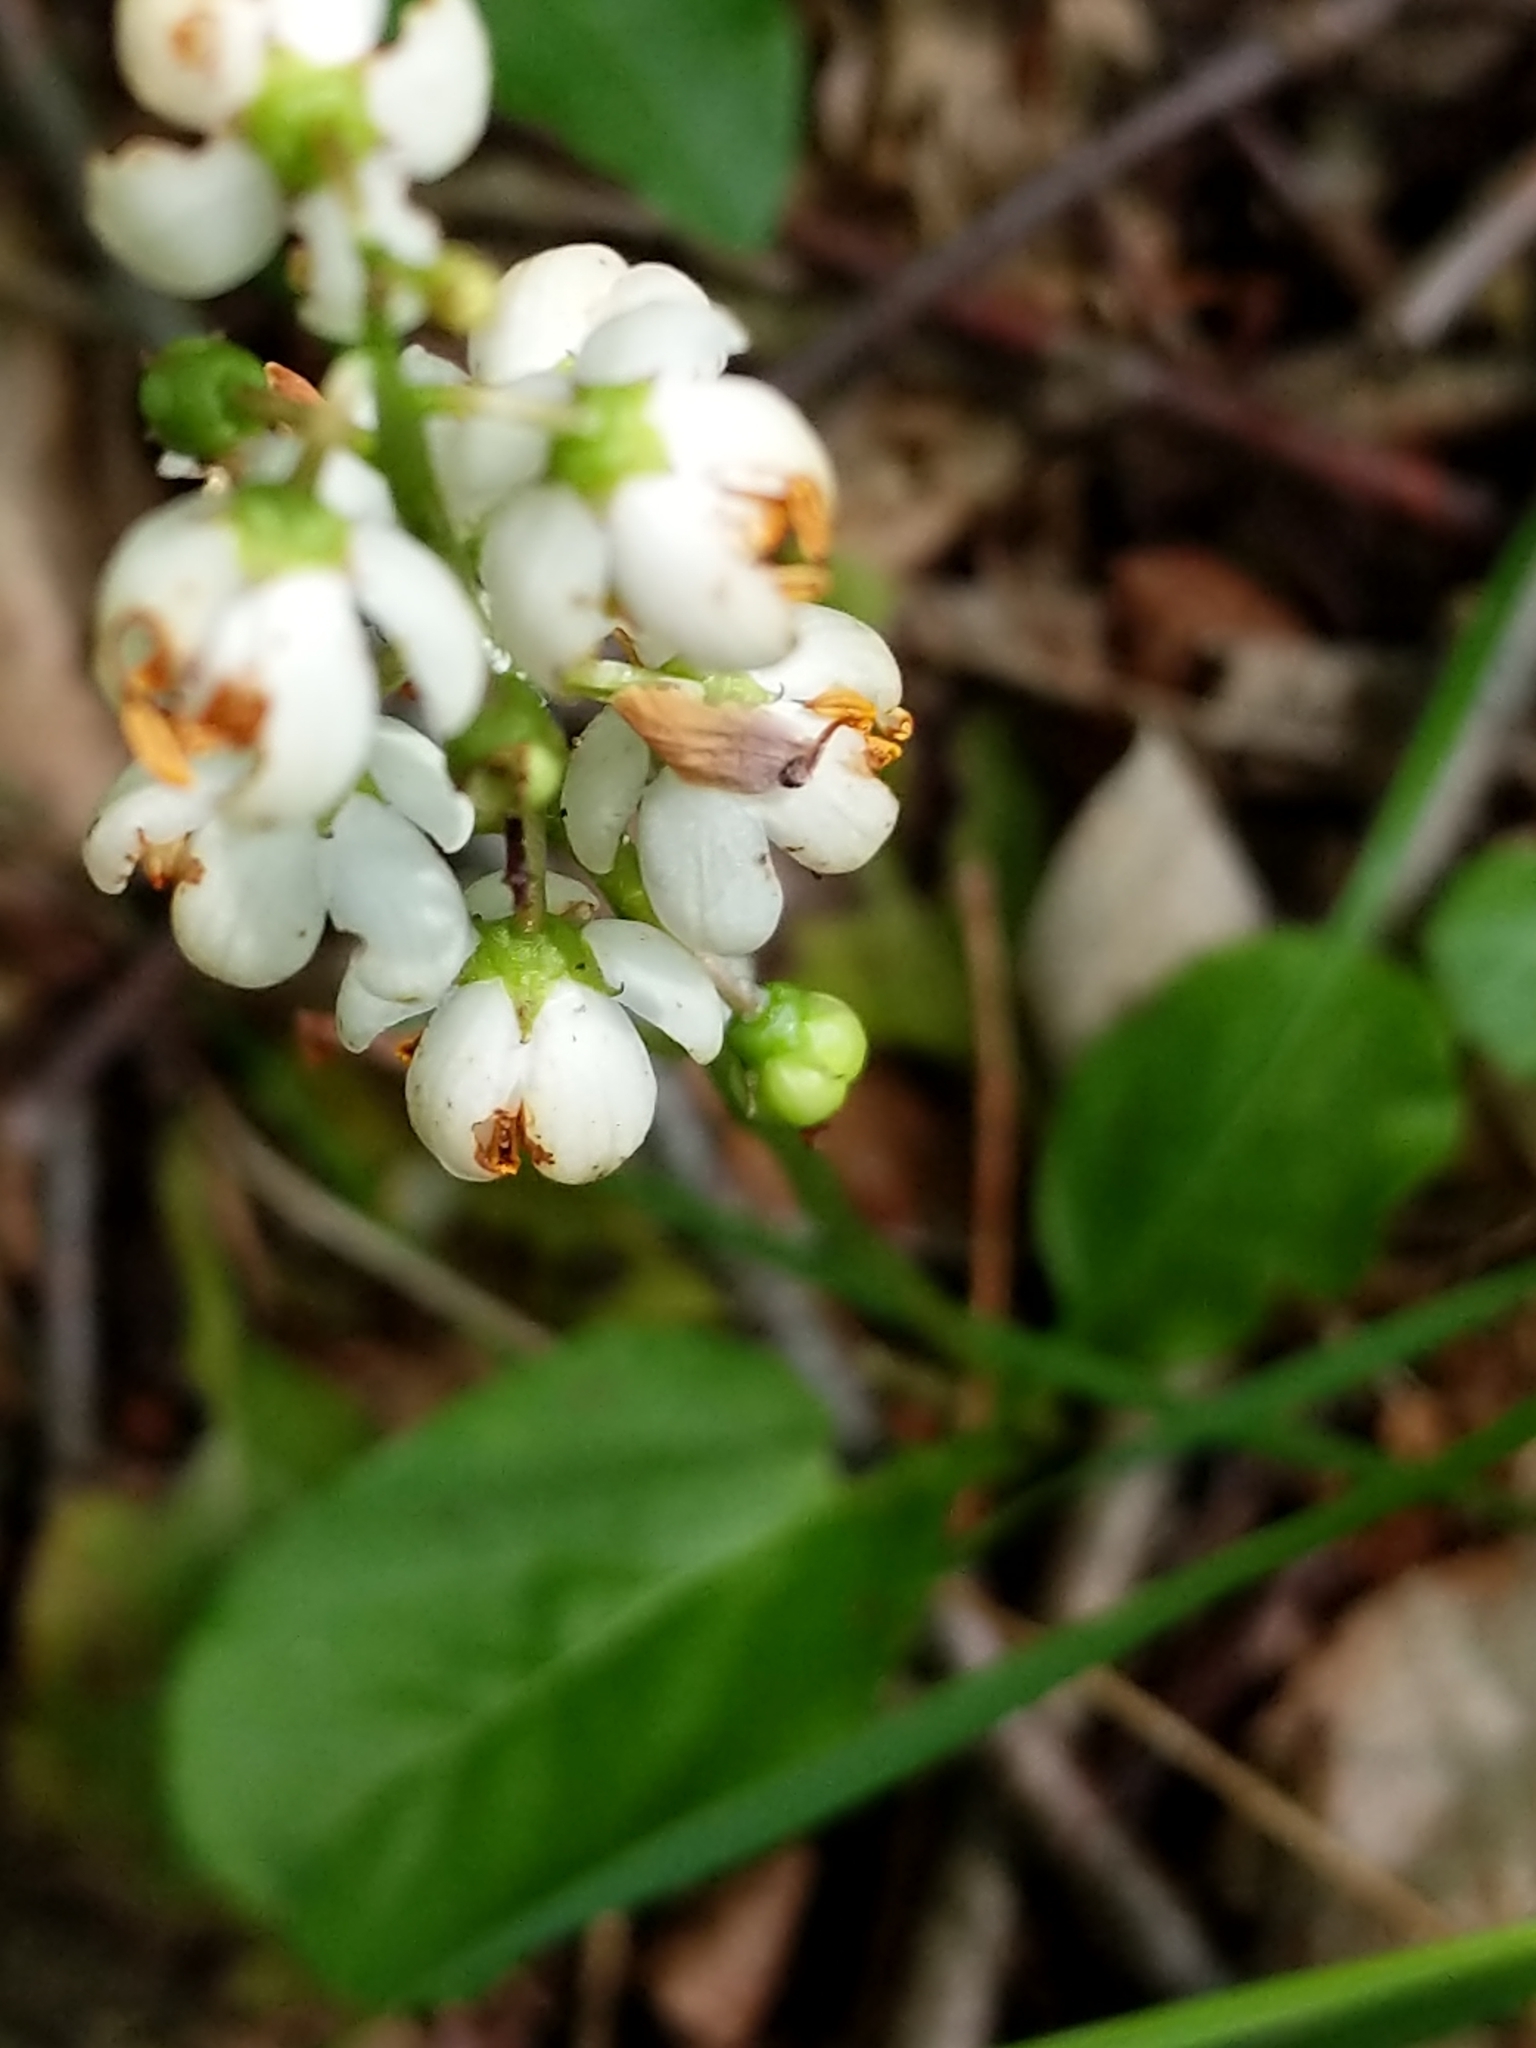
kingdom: Plantae
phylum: Tracheophyta
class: Magnoliopsida
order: Ericales
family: Ericaceae
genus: Pyrola
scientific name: Pyrola elliptica
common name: Shinleaf
